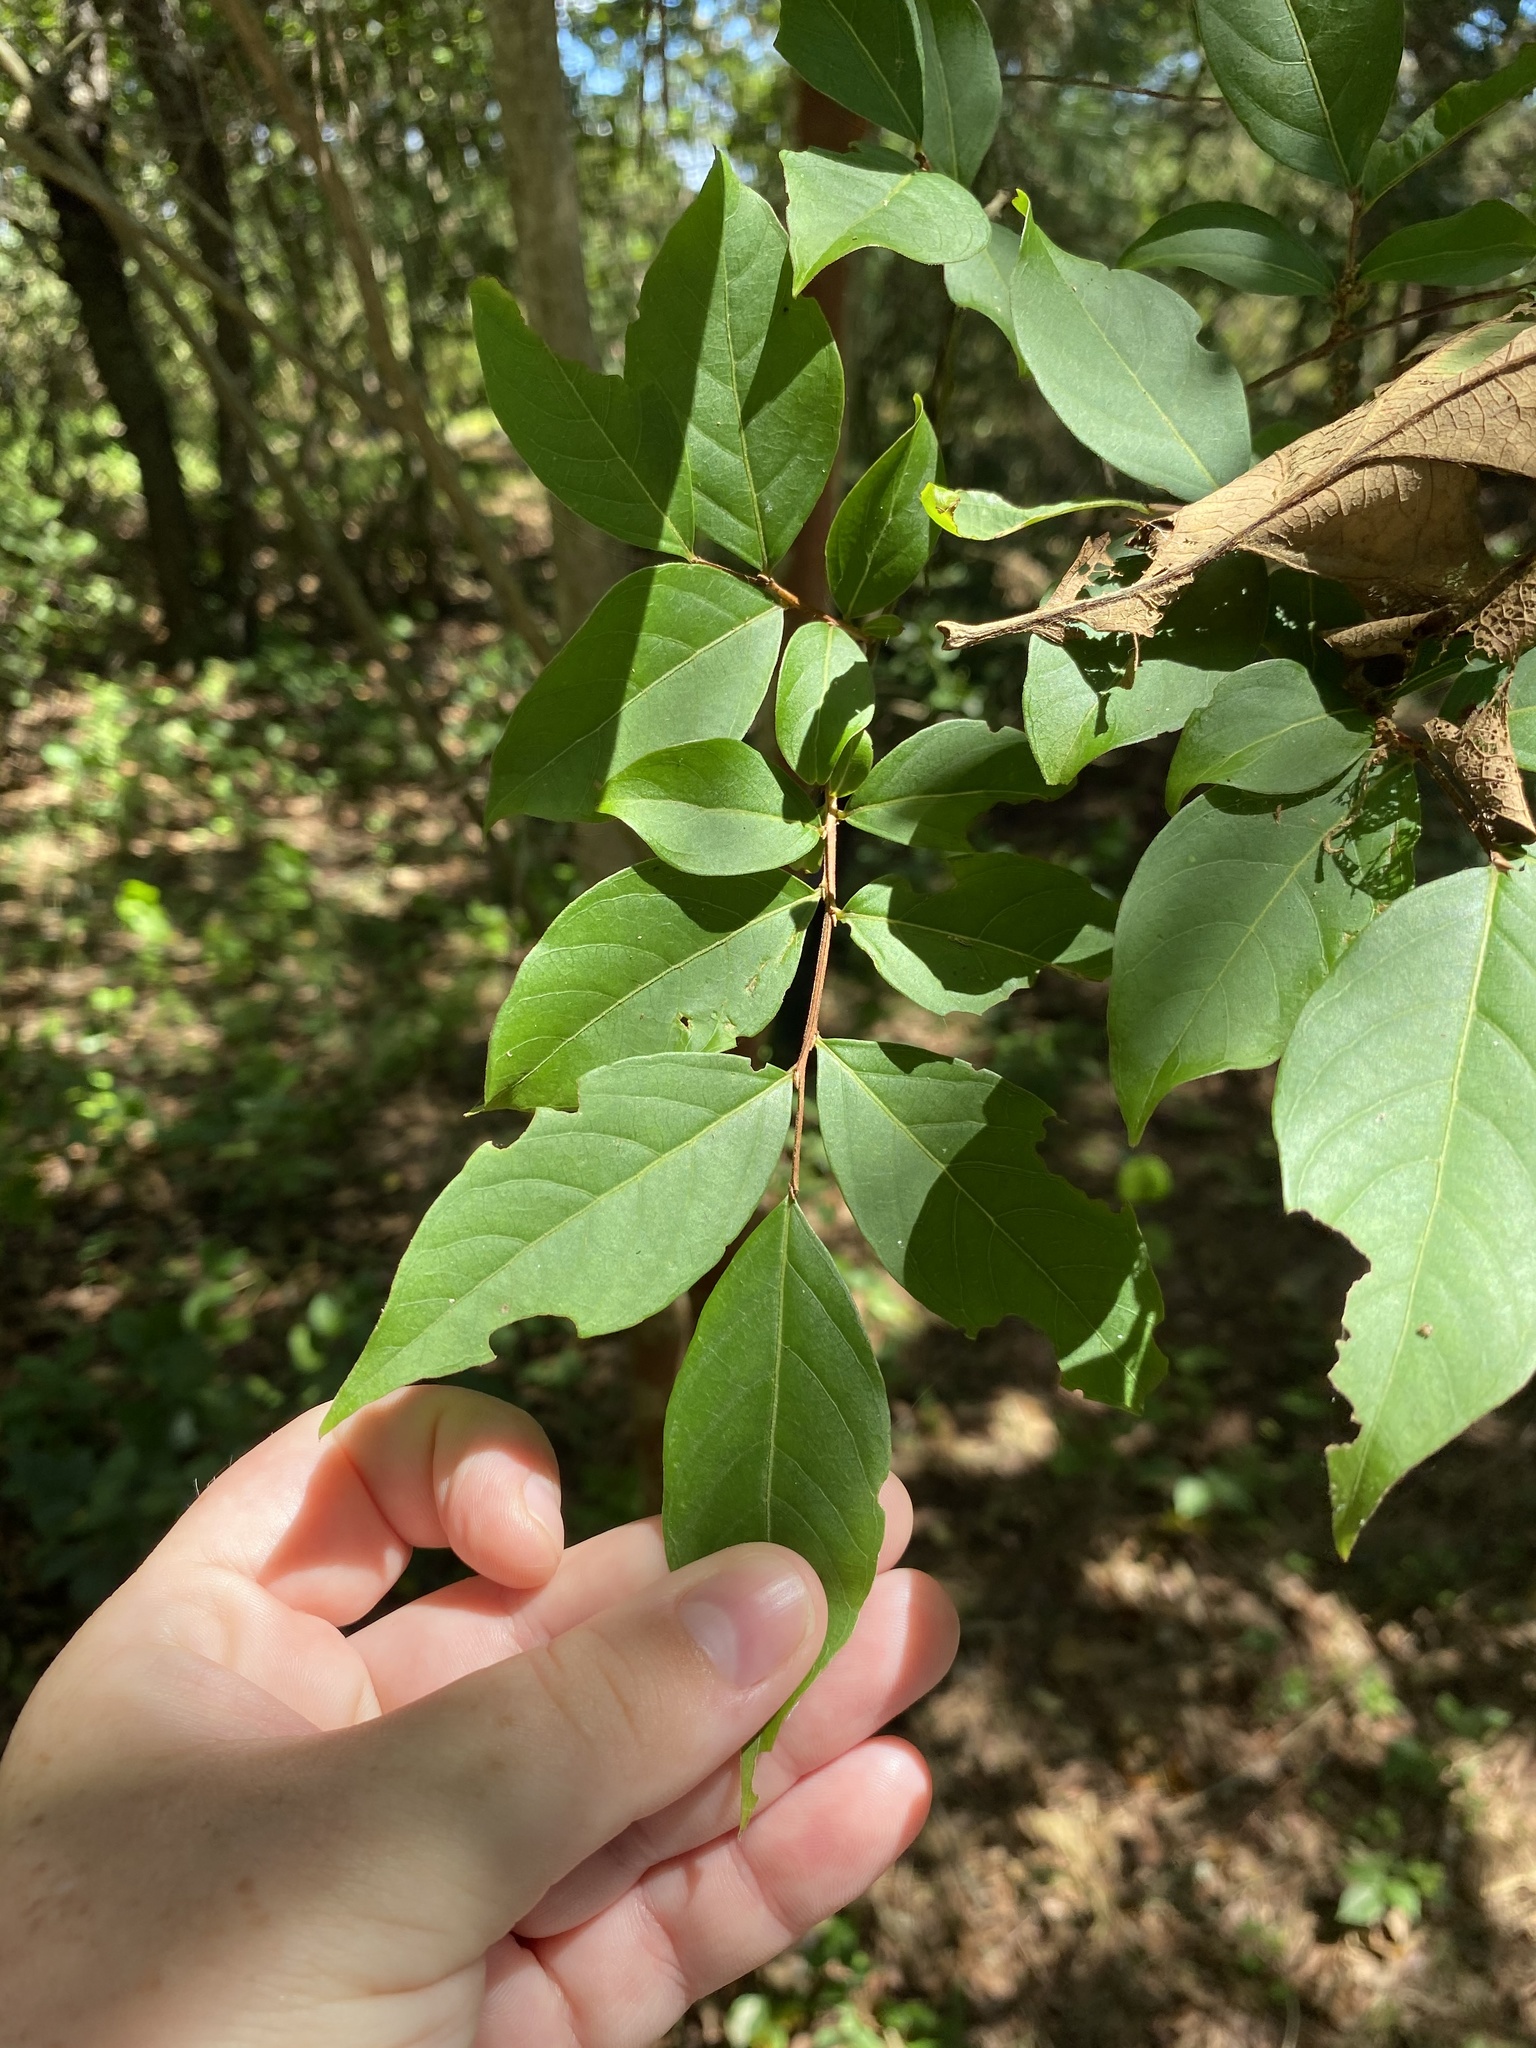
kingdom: Plantae
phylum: Tracheophyta
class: Magnoliopsida
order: Myrtales
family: Lythraceae
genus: Lagerstroemia
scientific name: Lagerstroemia
